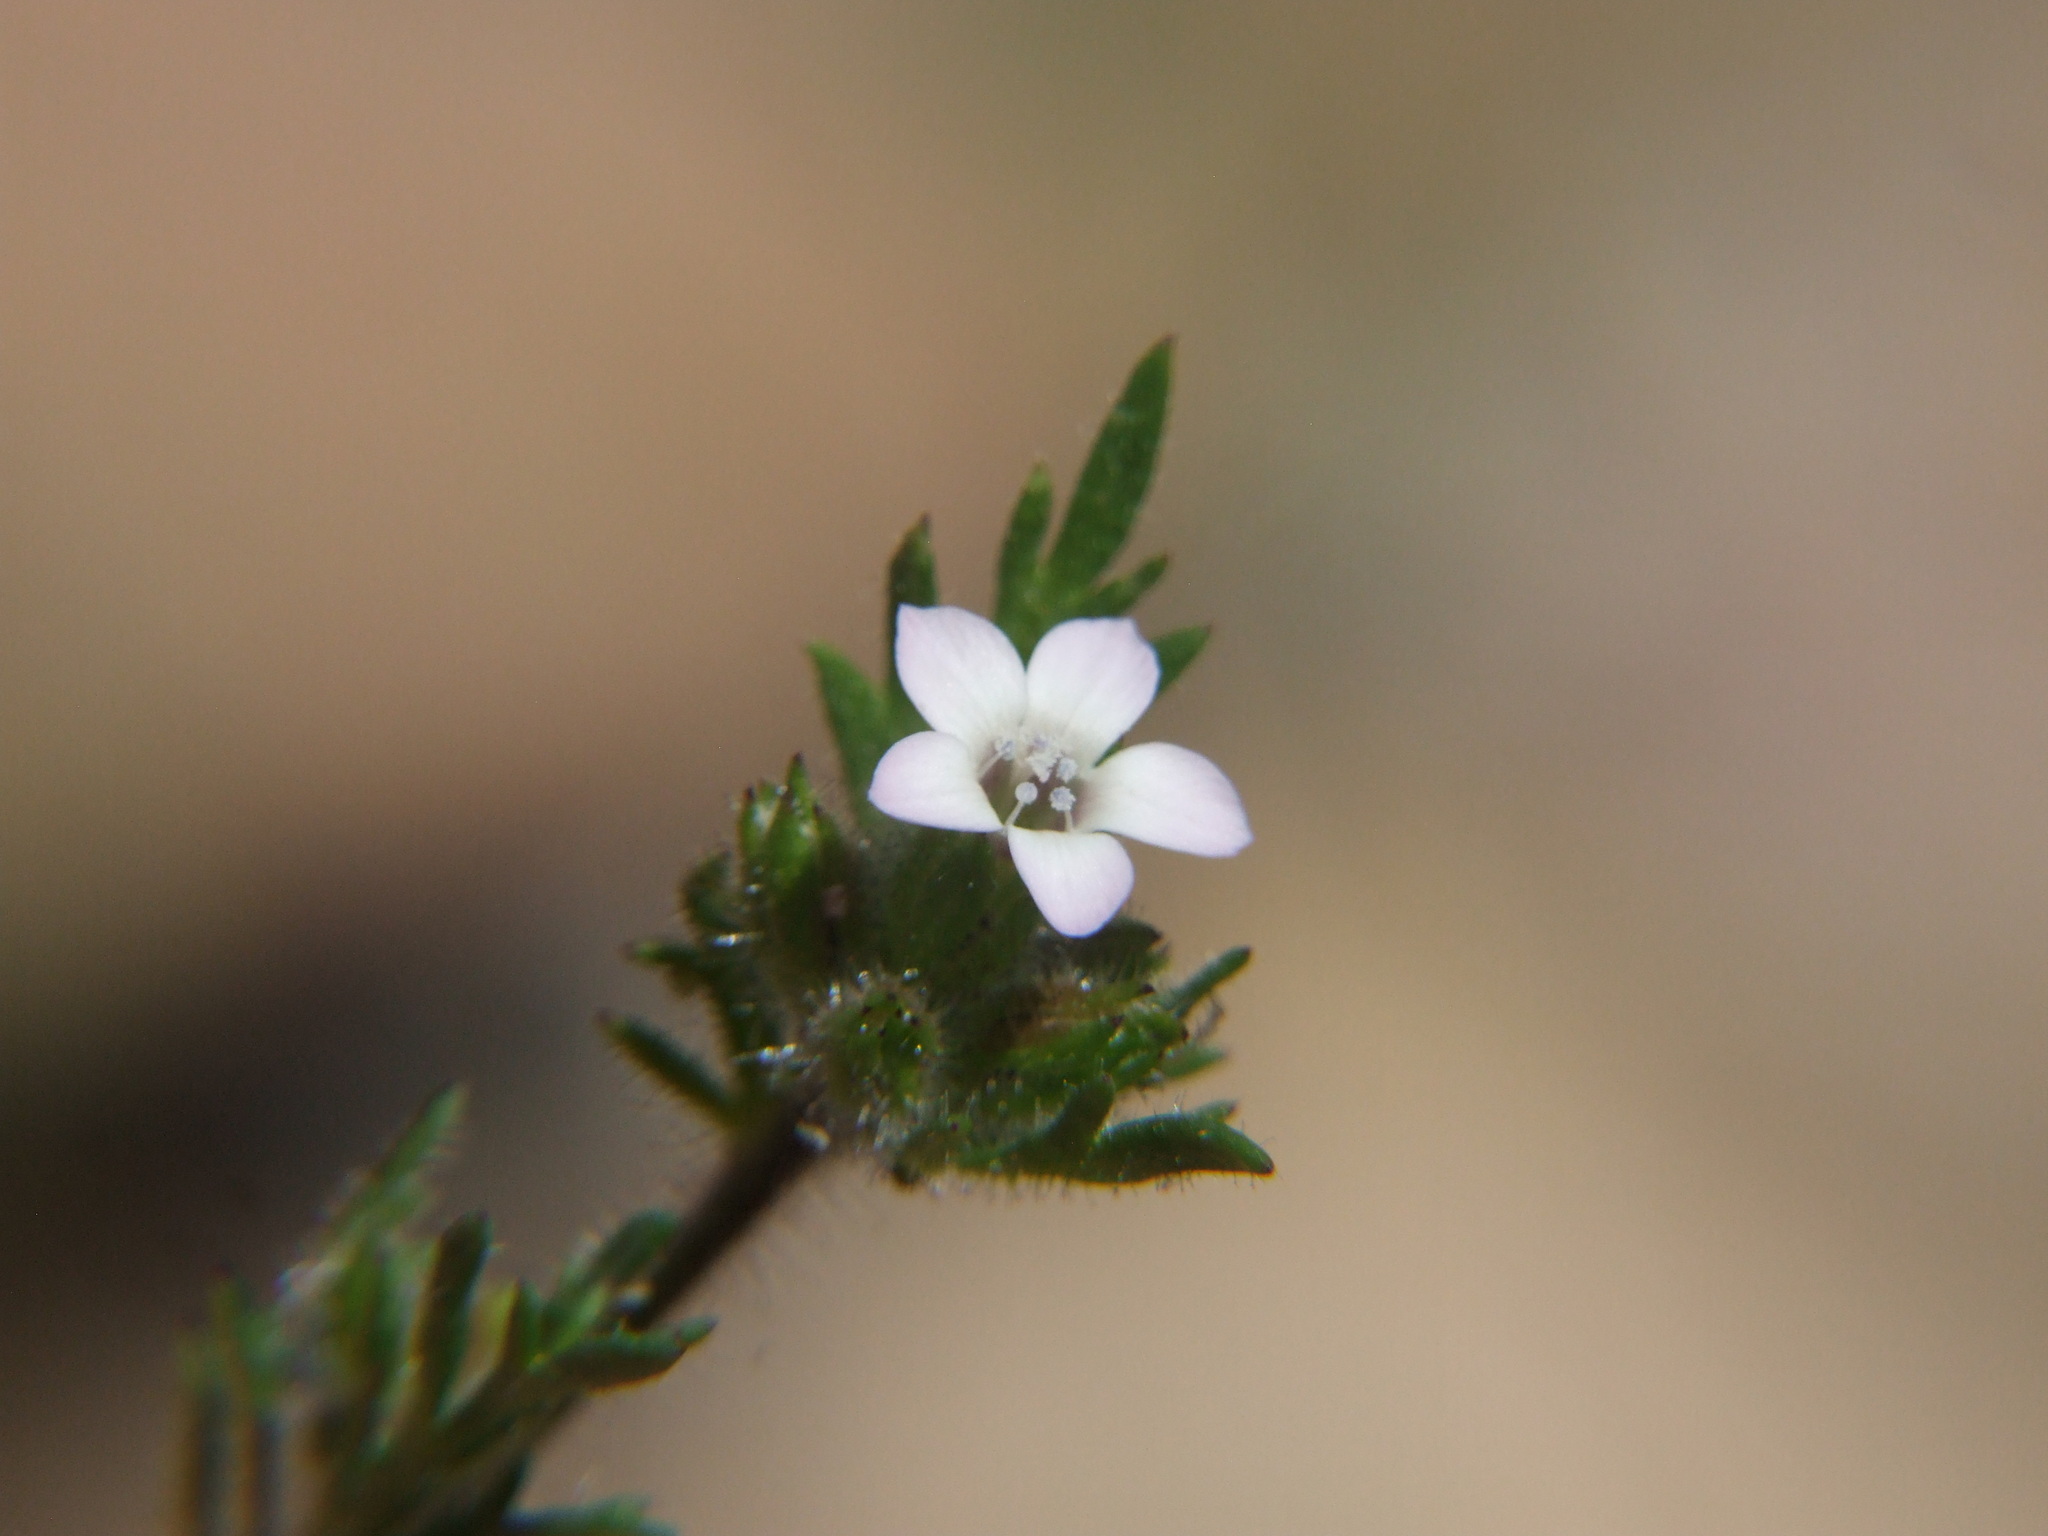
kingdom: Plantae
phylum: Tracheophyta
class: Magnoliopsida
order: Ericales
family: Polemoniaceae
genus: Gilia
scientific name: Gilia laciniata
